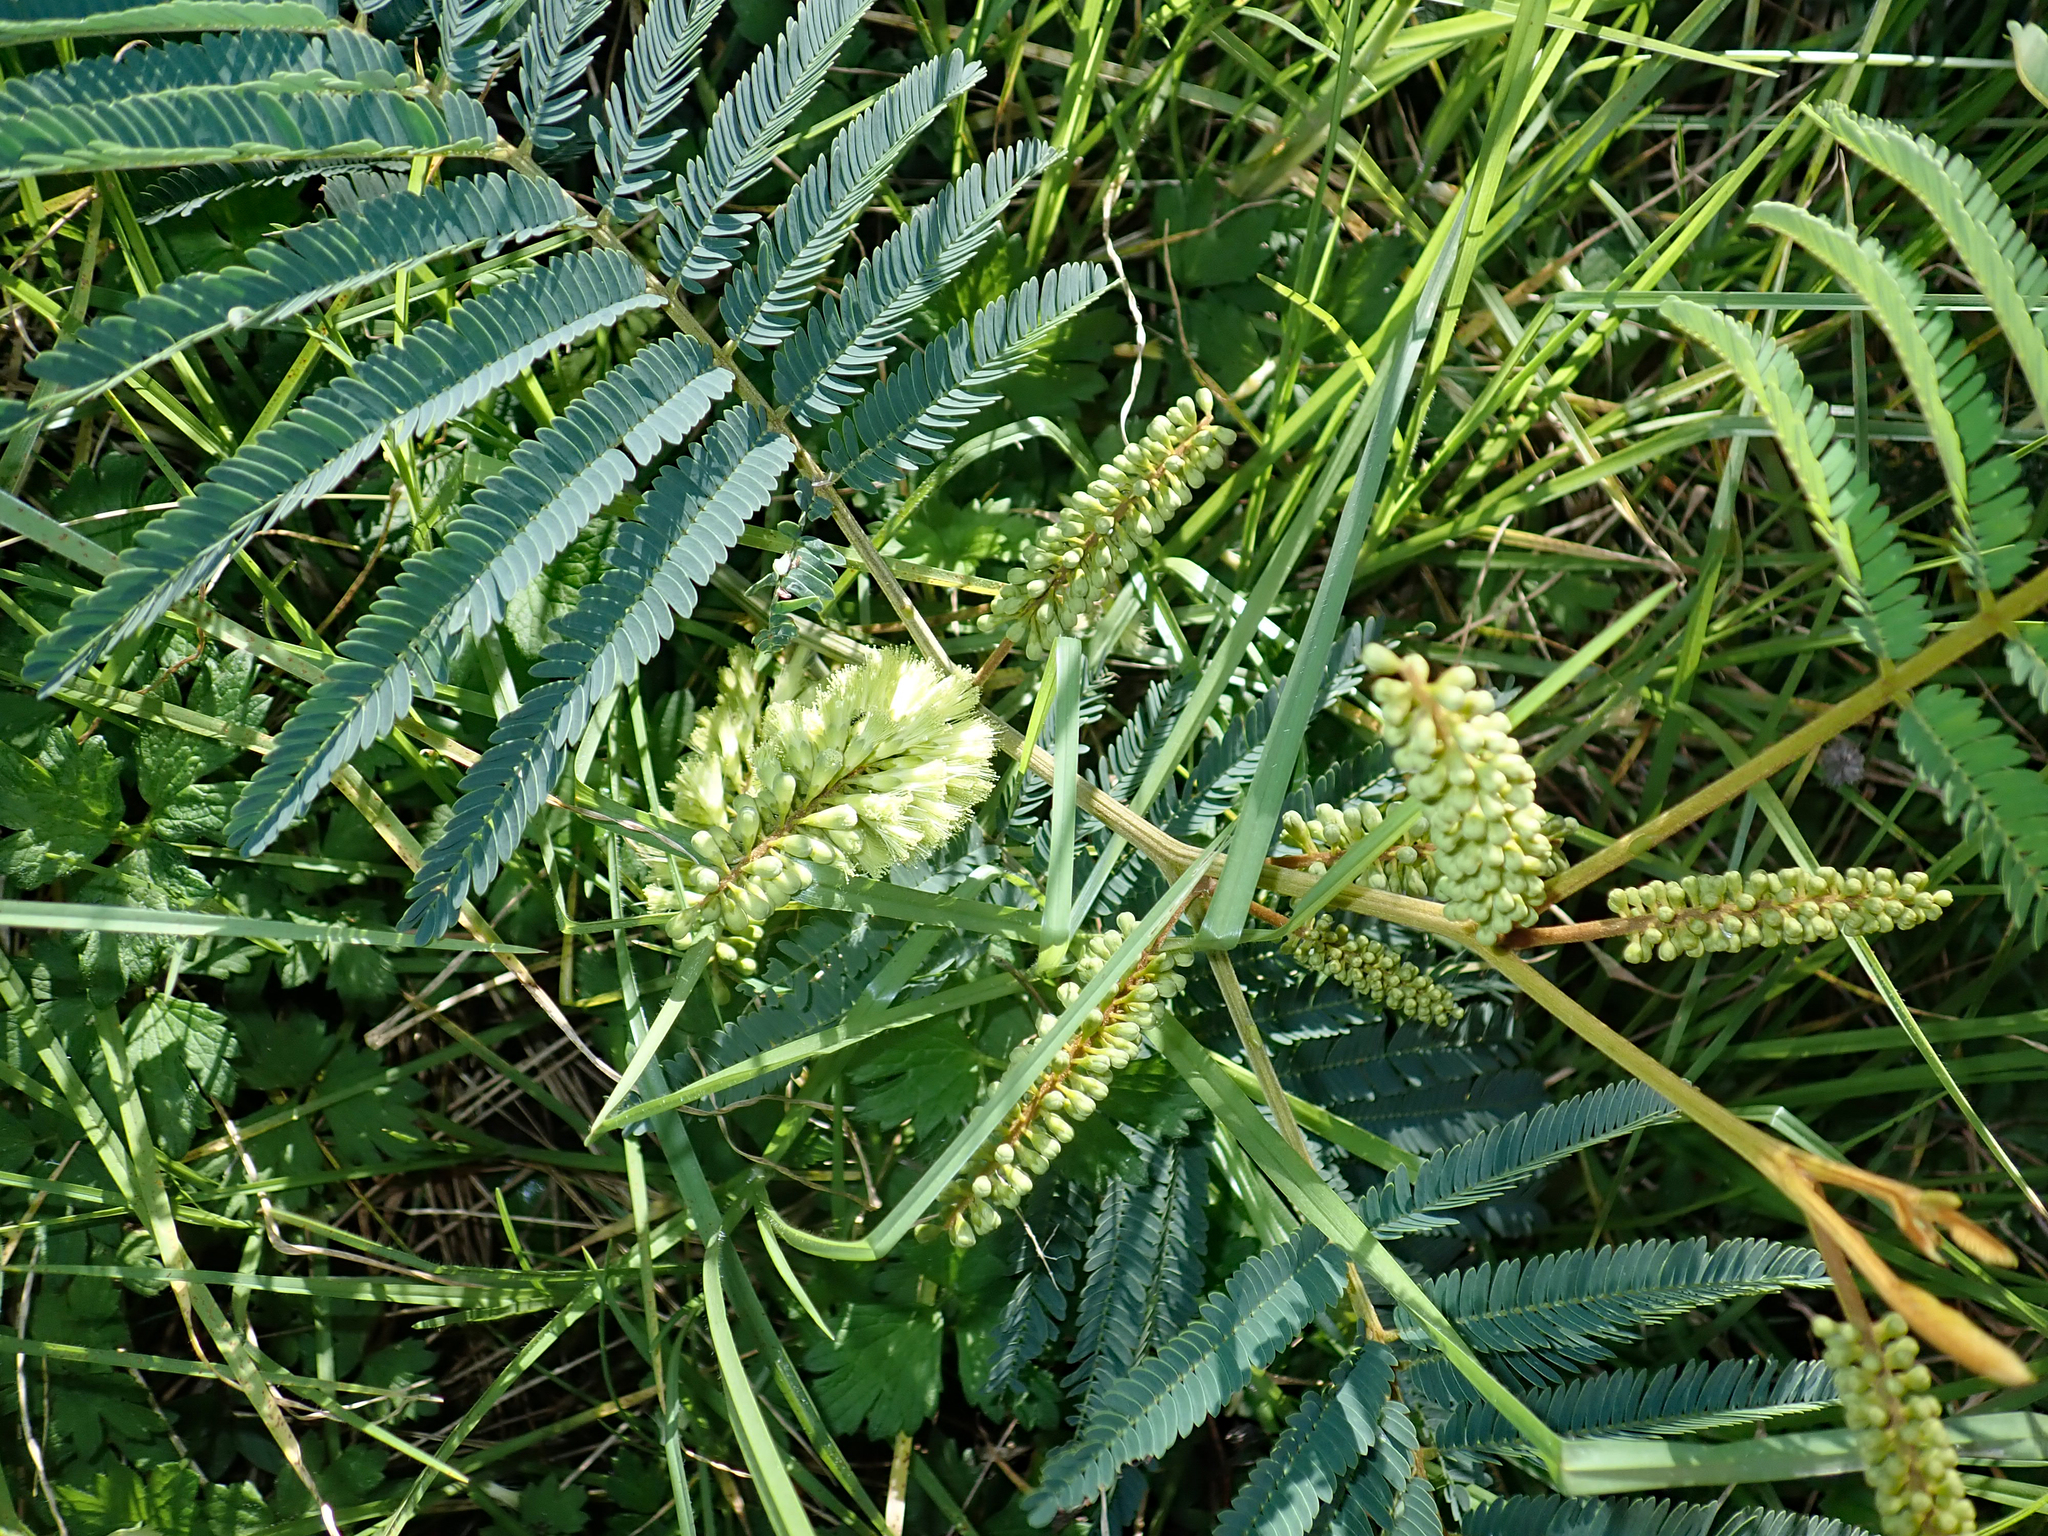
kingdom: Plantae
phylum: Tracheophyta
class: Magnoliopsida
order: Fabales
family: Fabaceae
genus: Paraserianthes
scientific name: Paraserianthes lophantha
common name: Plume albizia
